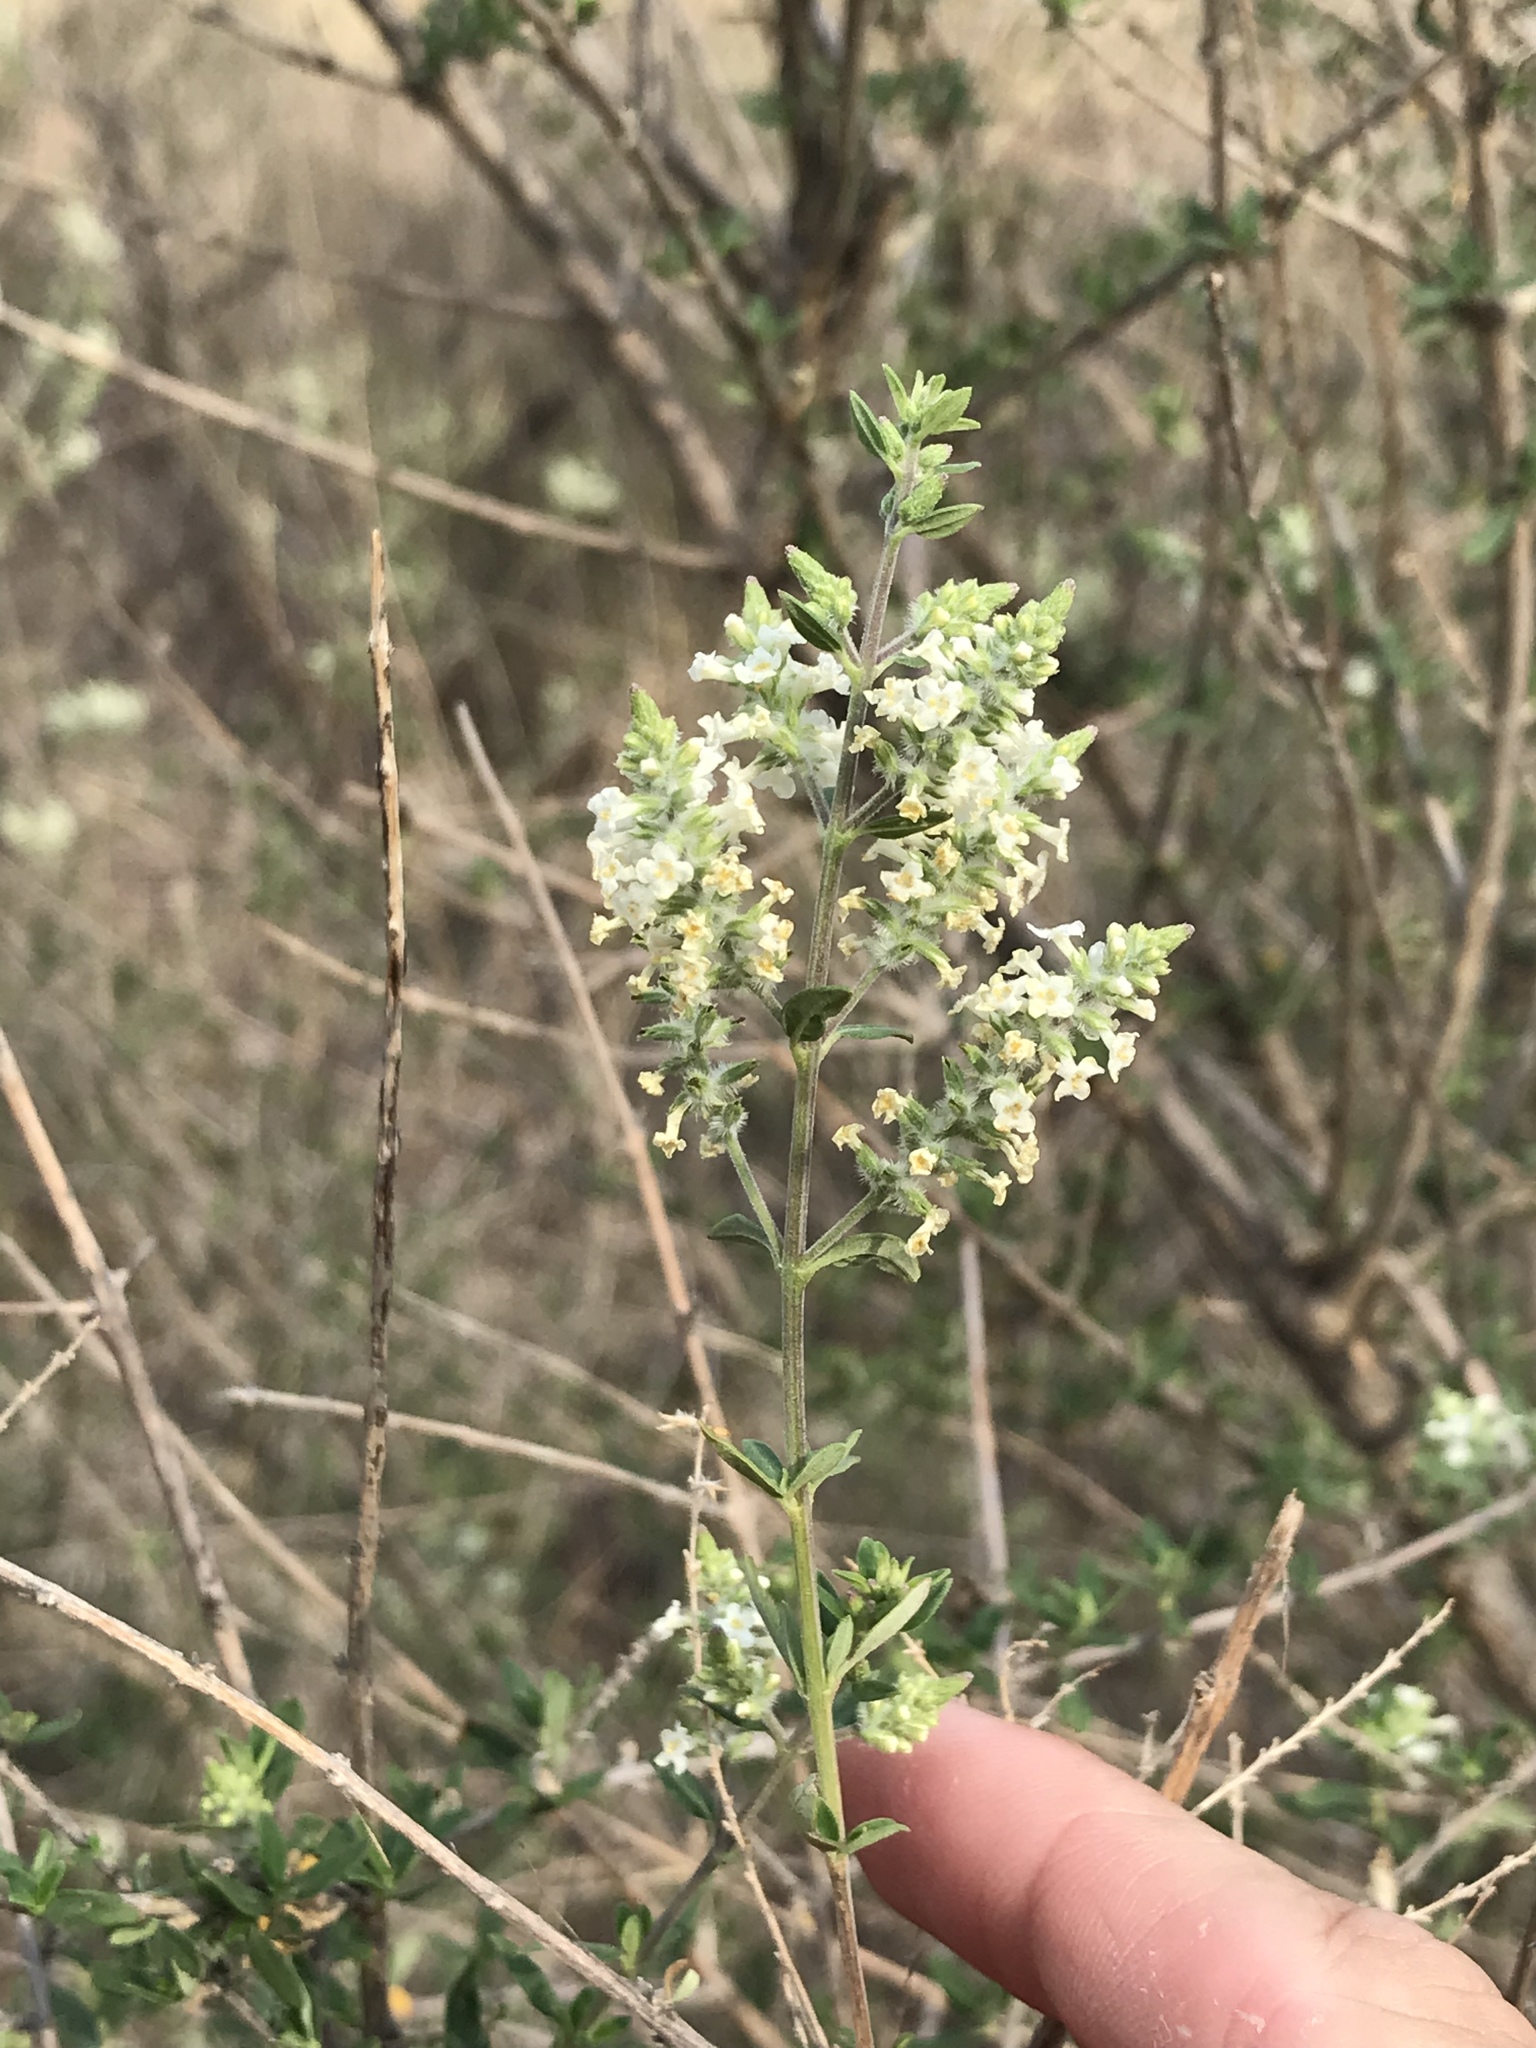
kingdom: Plantae
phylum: Tracheophyta
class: Magnoliopsida
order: Lamiales
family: Verbenaceae
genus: Aloysia
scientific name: Aloysia gratissima
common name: Common bee-brush
